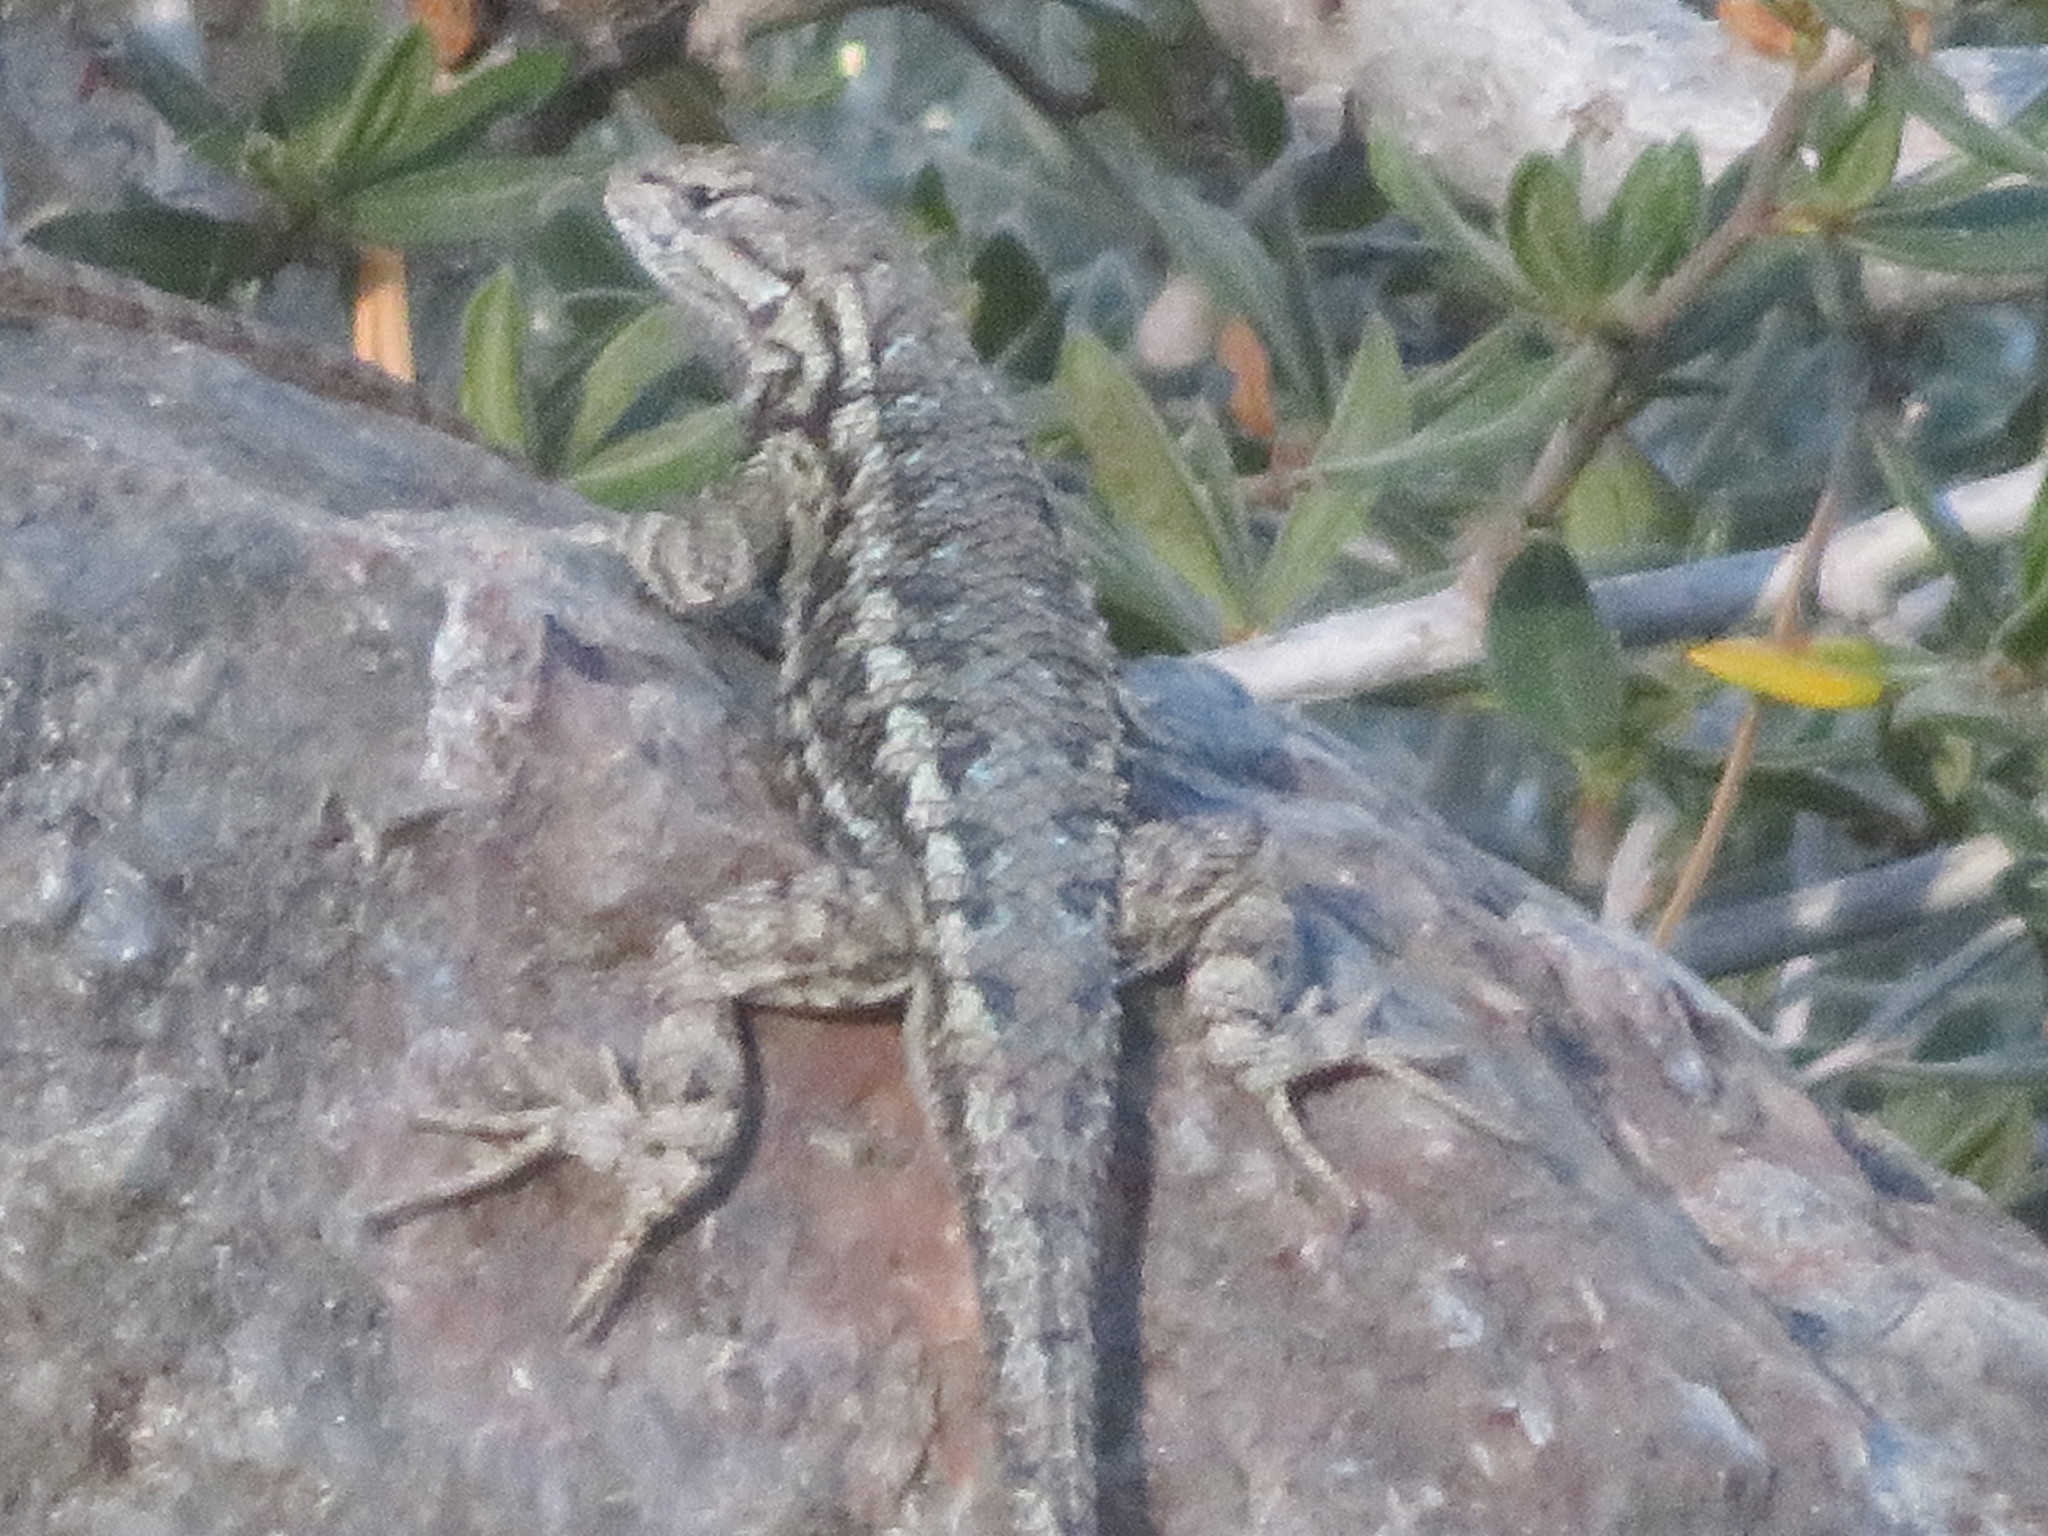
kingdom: Animalia
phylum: Chordata
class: Squamata
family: Phrynosomatidae
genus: Sceloporus
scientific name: Sceloporus occidentalis
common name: Western fence lizard
